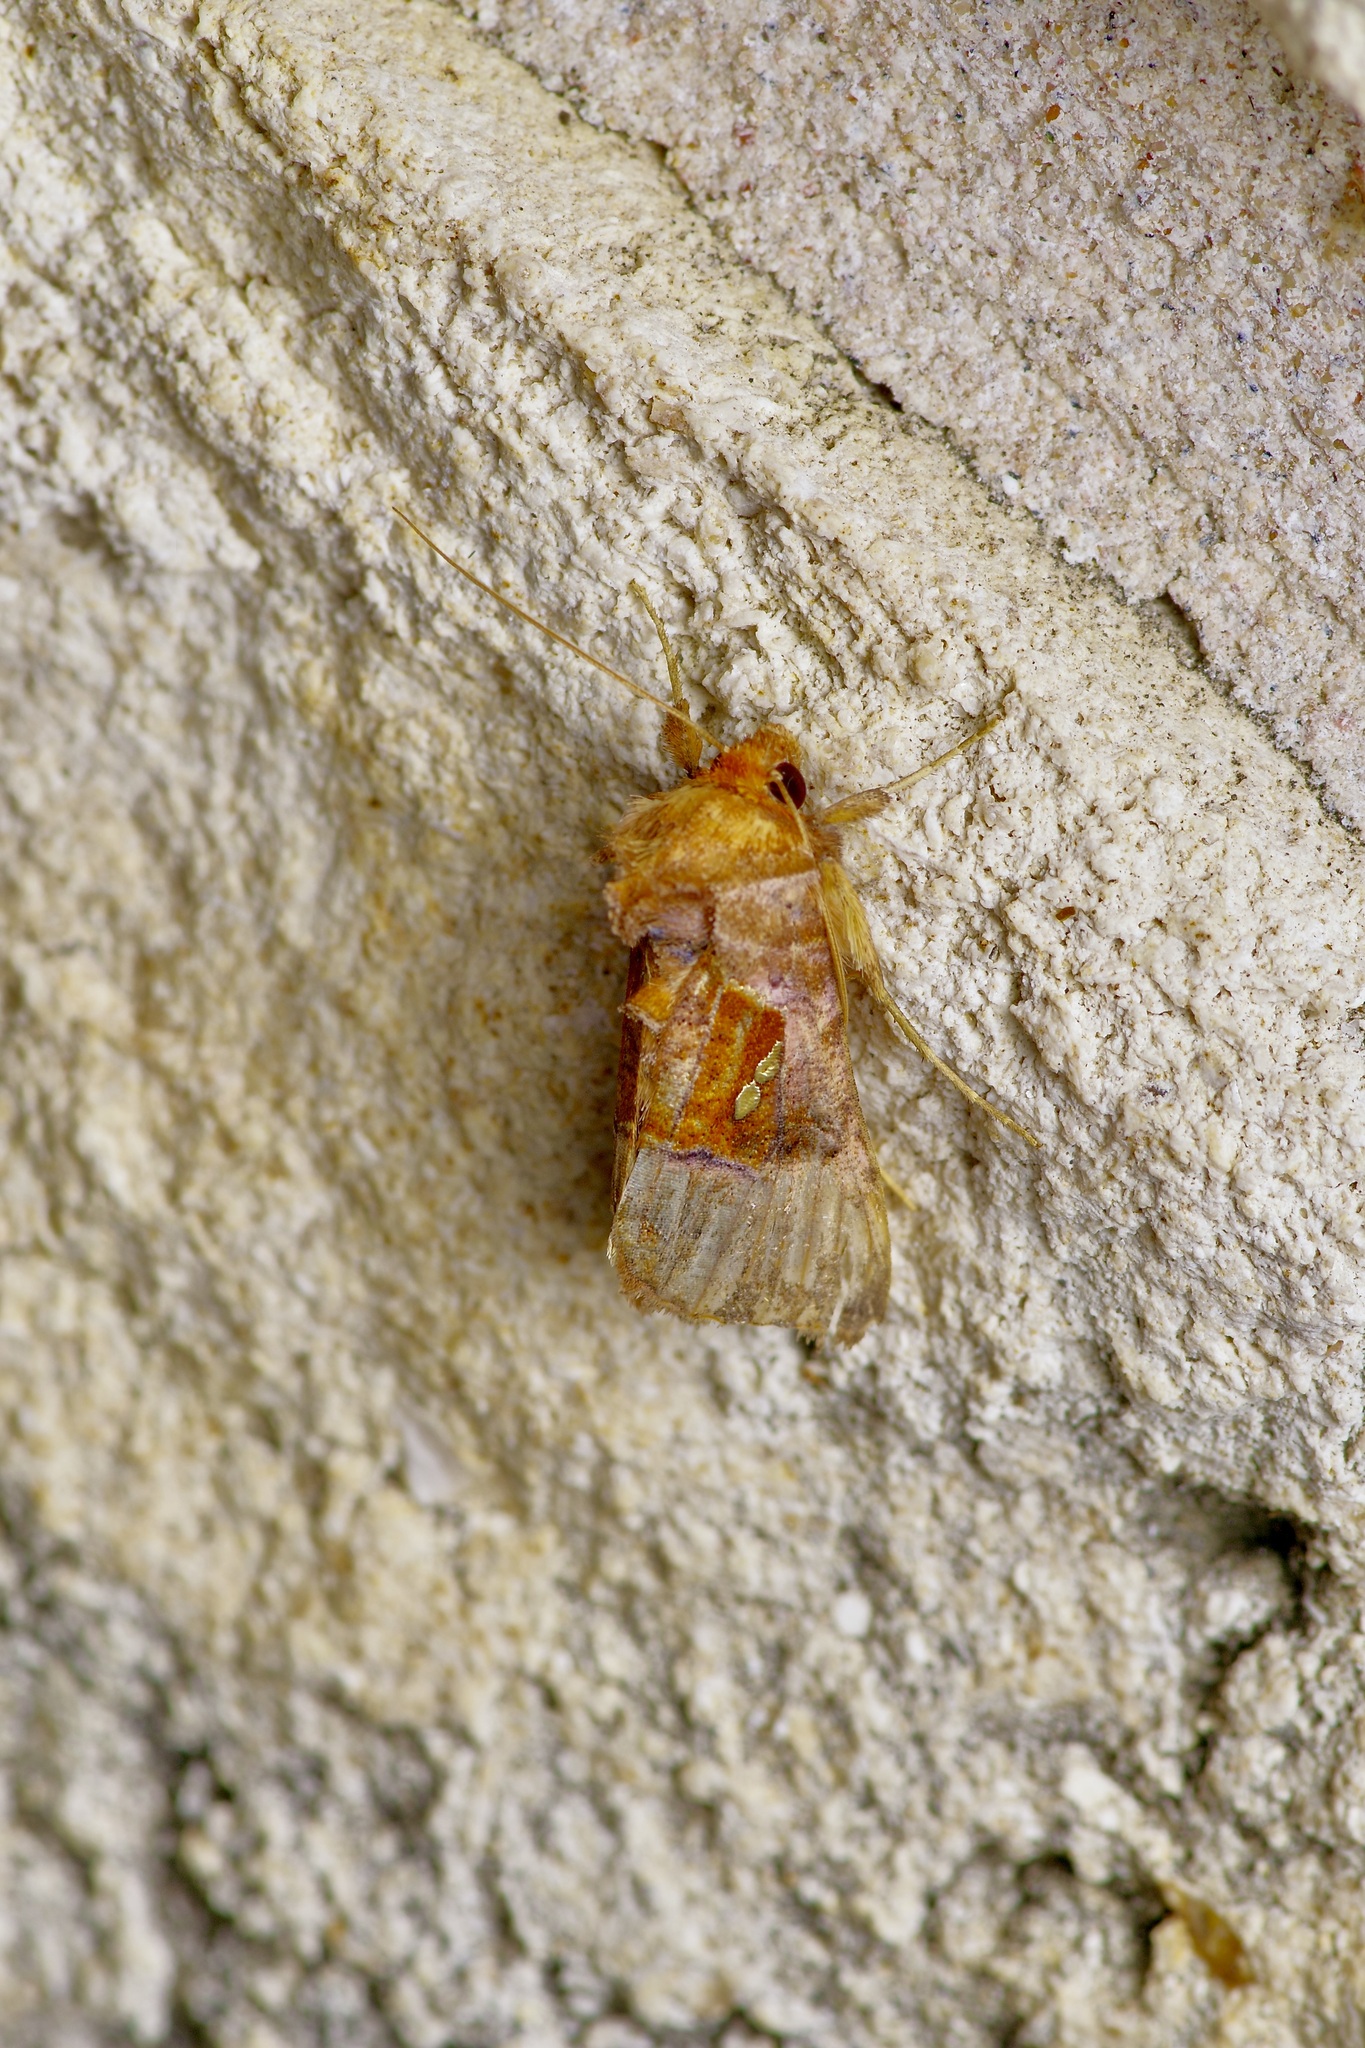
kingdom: Animalia
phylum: Arthropoda
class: Insecta
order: Lepidoptera
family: Noctuidae
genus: Enigmogramma
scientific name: Enigmogramma basigera
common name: Pink-washed looper moth
